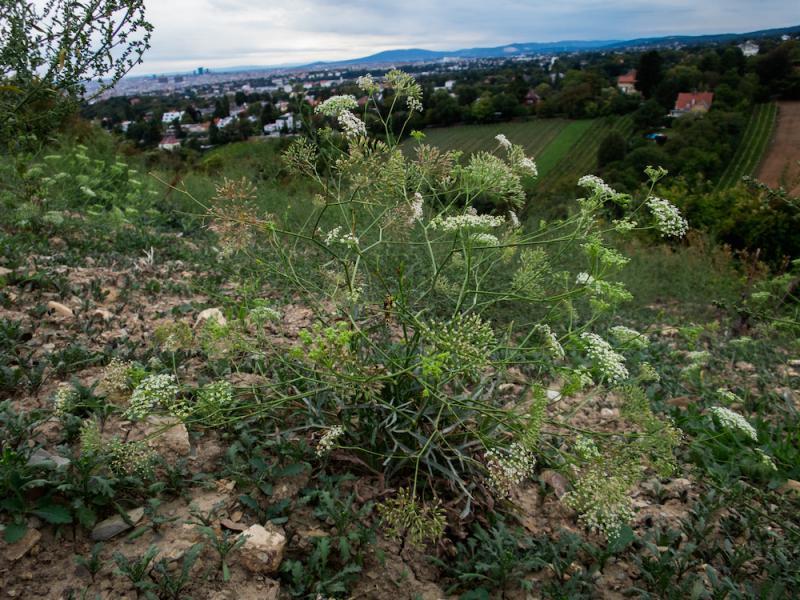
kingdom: Plantae
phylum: Tracheophyta
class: Magnoliopsida
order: Apiales
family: Apiaceae
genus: Falcaria
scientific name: Falcaria vulgaris
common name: Longleaf
